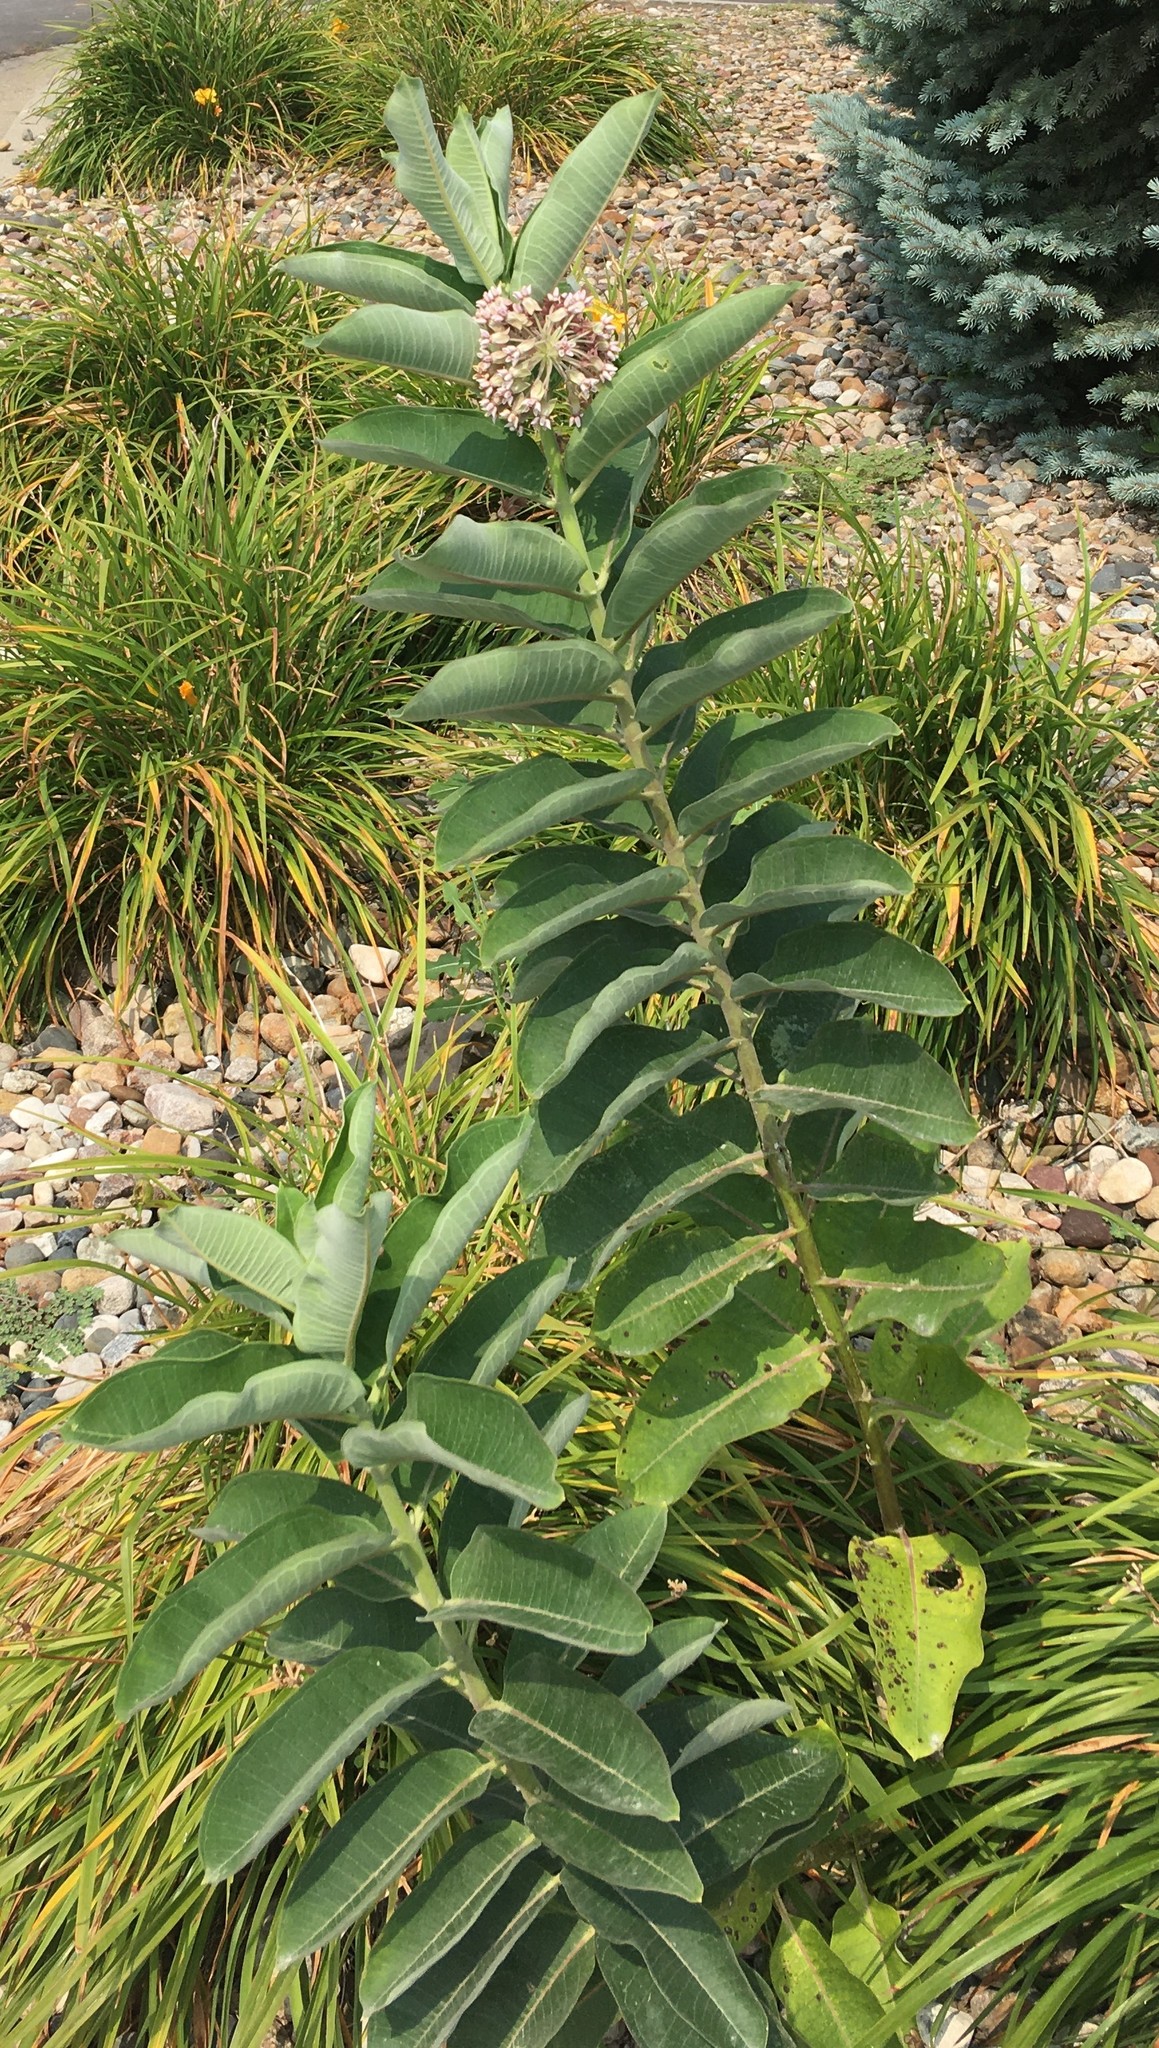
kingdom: Plantae
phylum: Tracheophyta
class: Magnoliopsida
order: Gentianales
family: Apocynaceae
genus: Asclepias
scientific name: Asclepias syriaca
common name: Common milkweed
